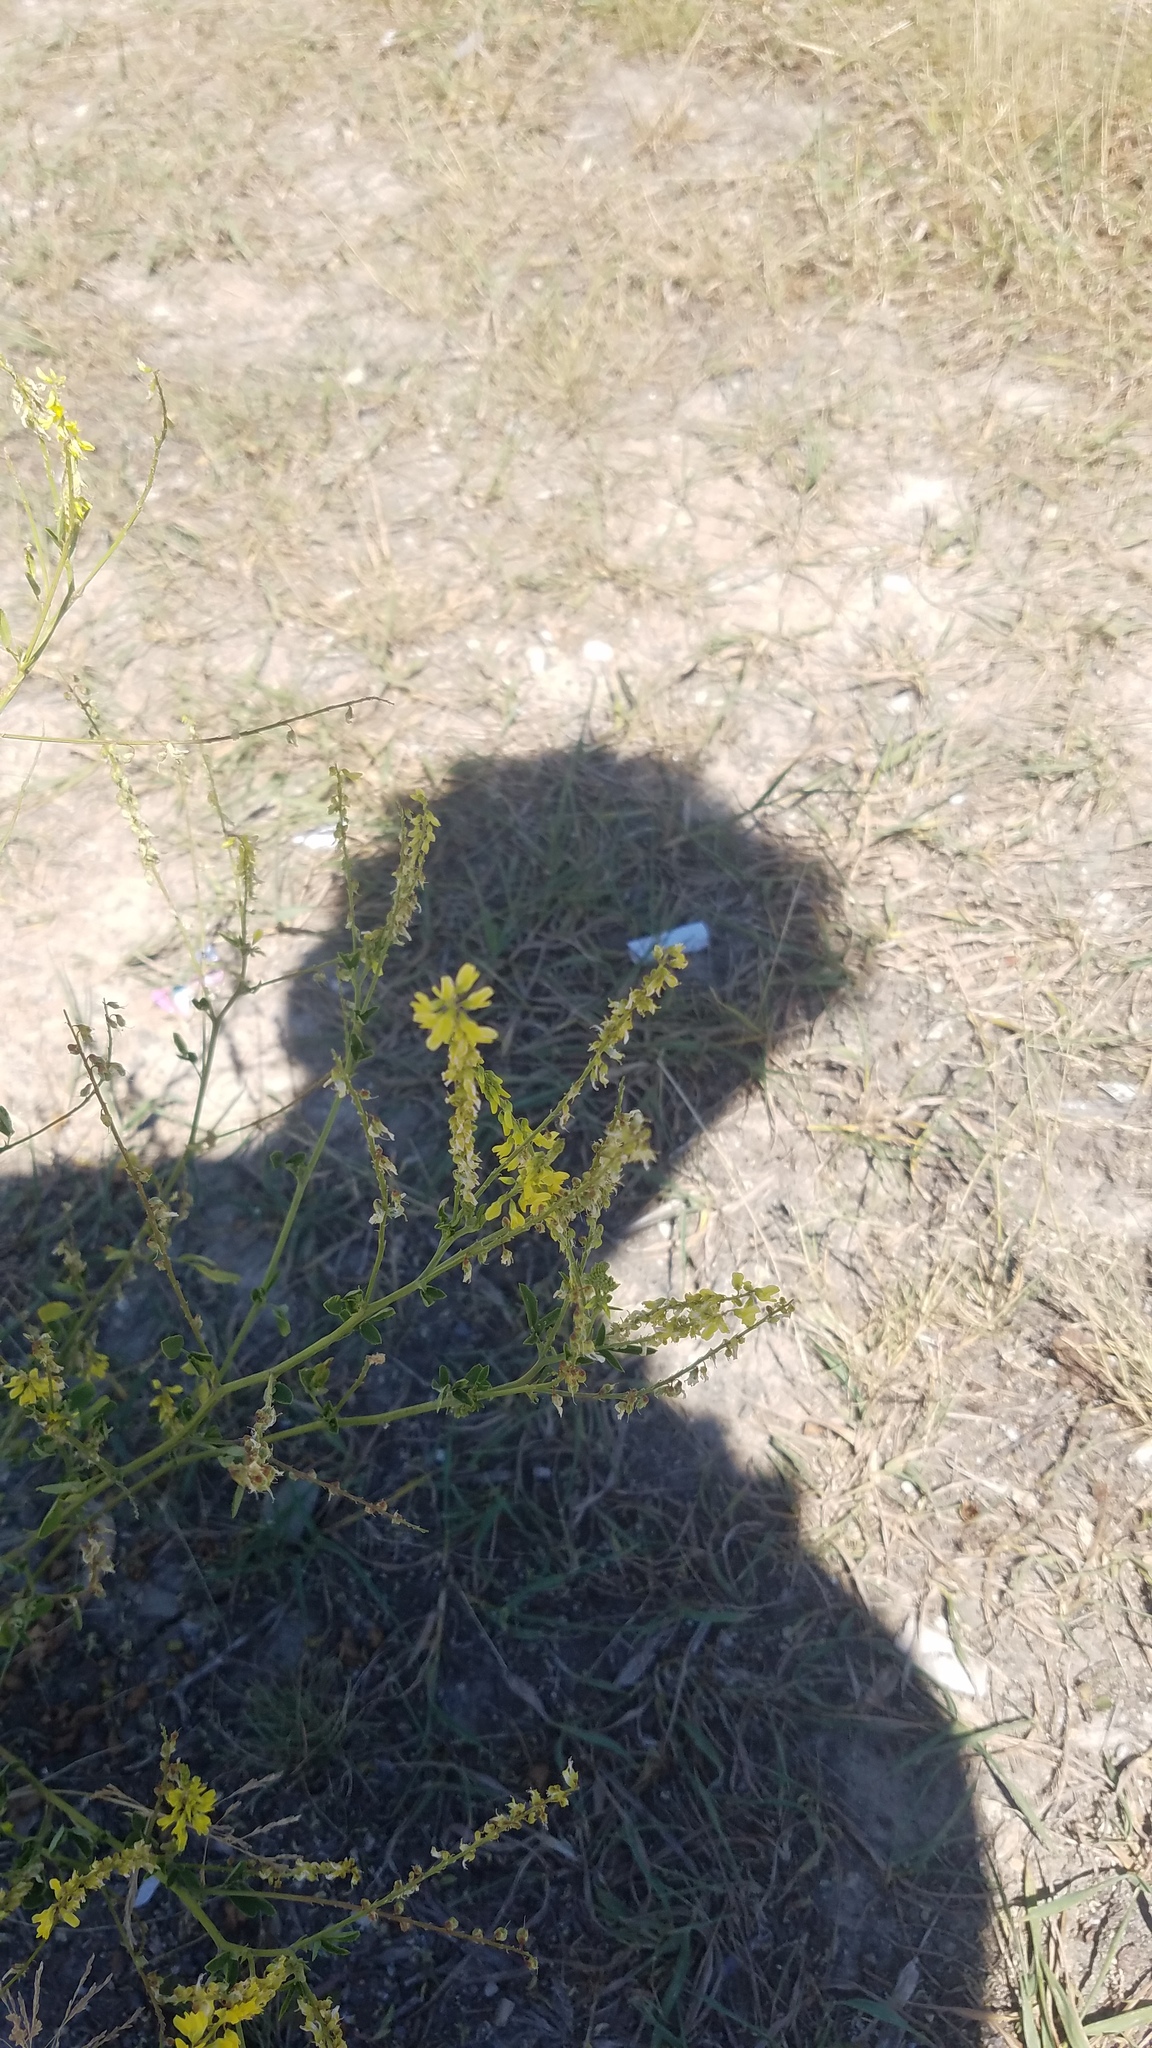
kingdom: Plantae
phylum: Tracheophyta
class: Magnoliopsida
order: Fabales
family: Fabaceae
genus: Melilotus
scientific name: Melilotus officinalis
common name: Sweetclover
